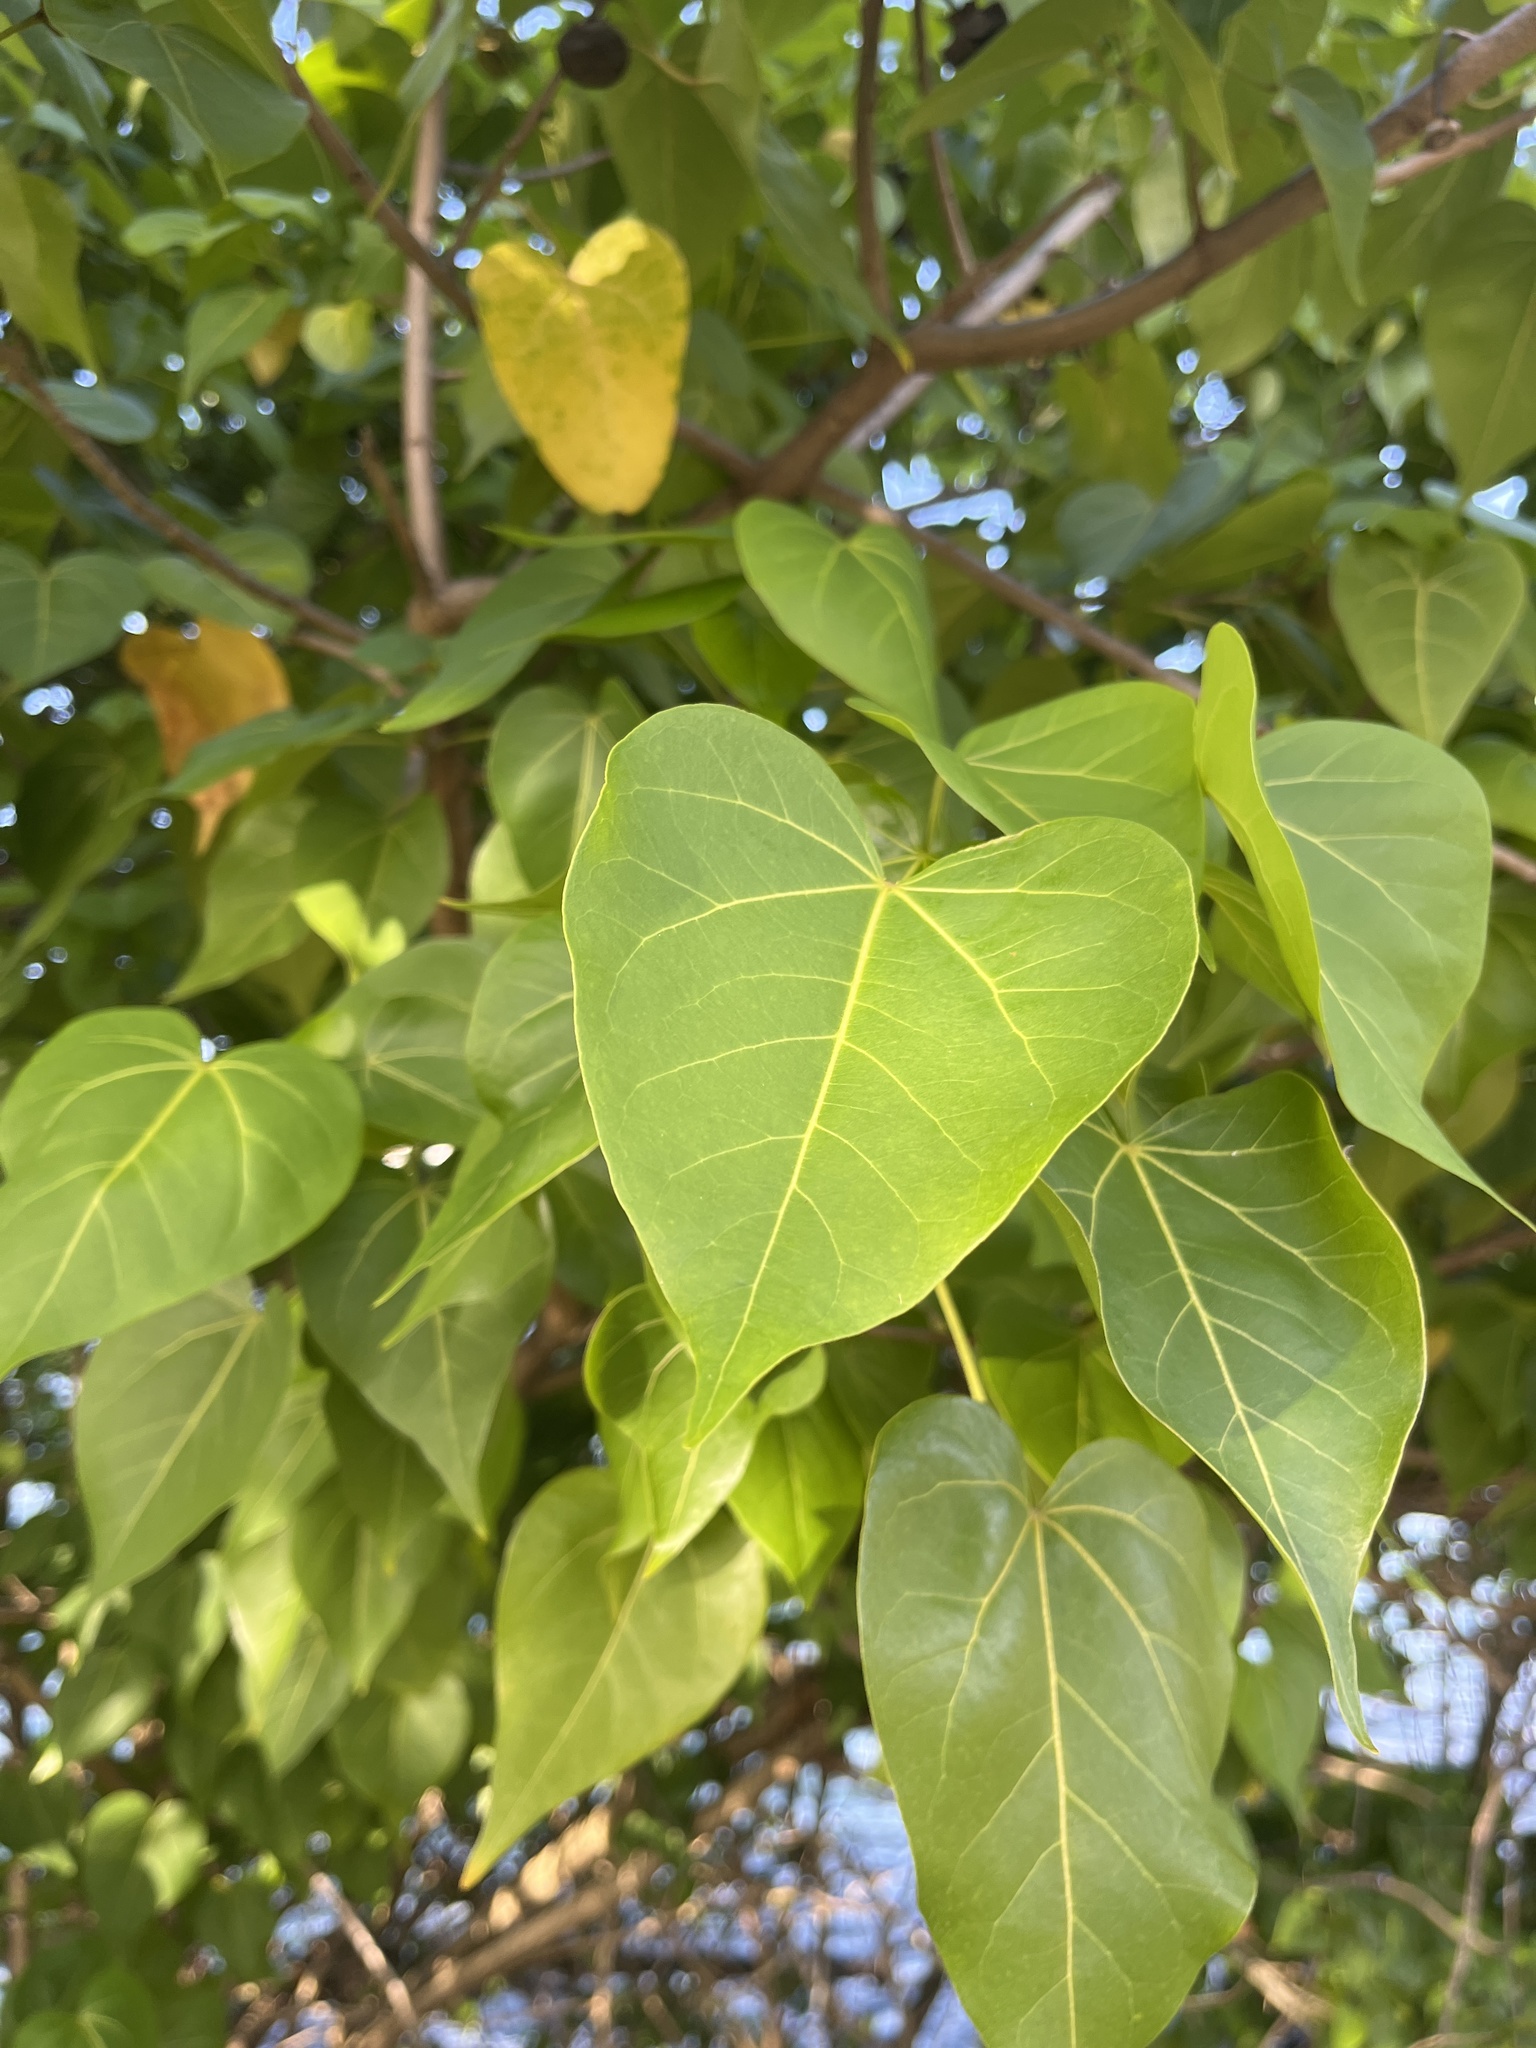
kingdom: Plantae
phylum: Tracheophyta
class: Magnoliopsida
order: Malvales
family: Malvaceae
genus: Thespesia
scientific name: Thespesia populnea
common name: Seaside mahoe
